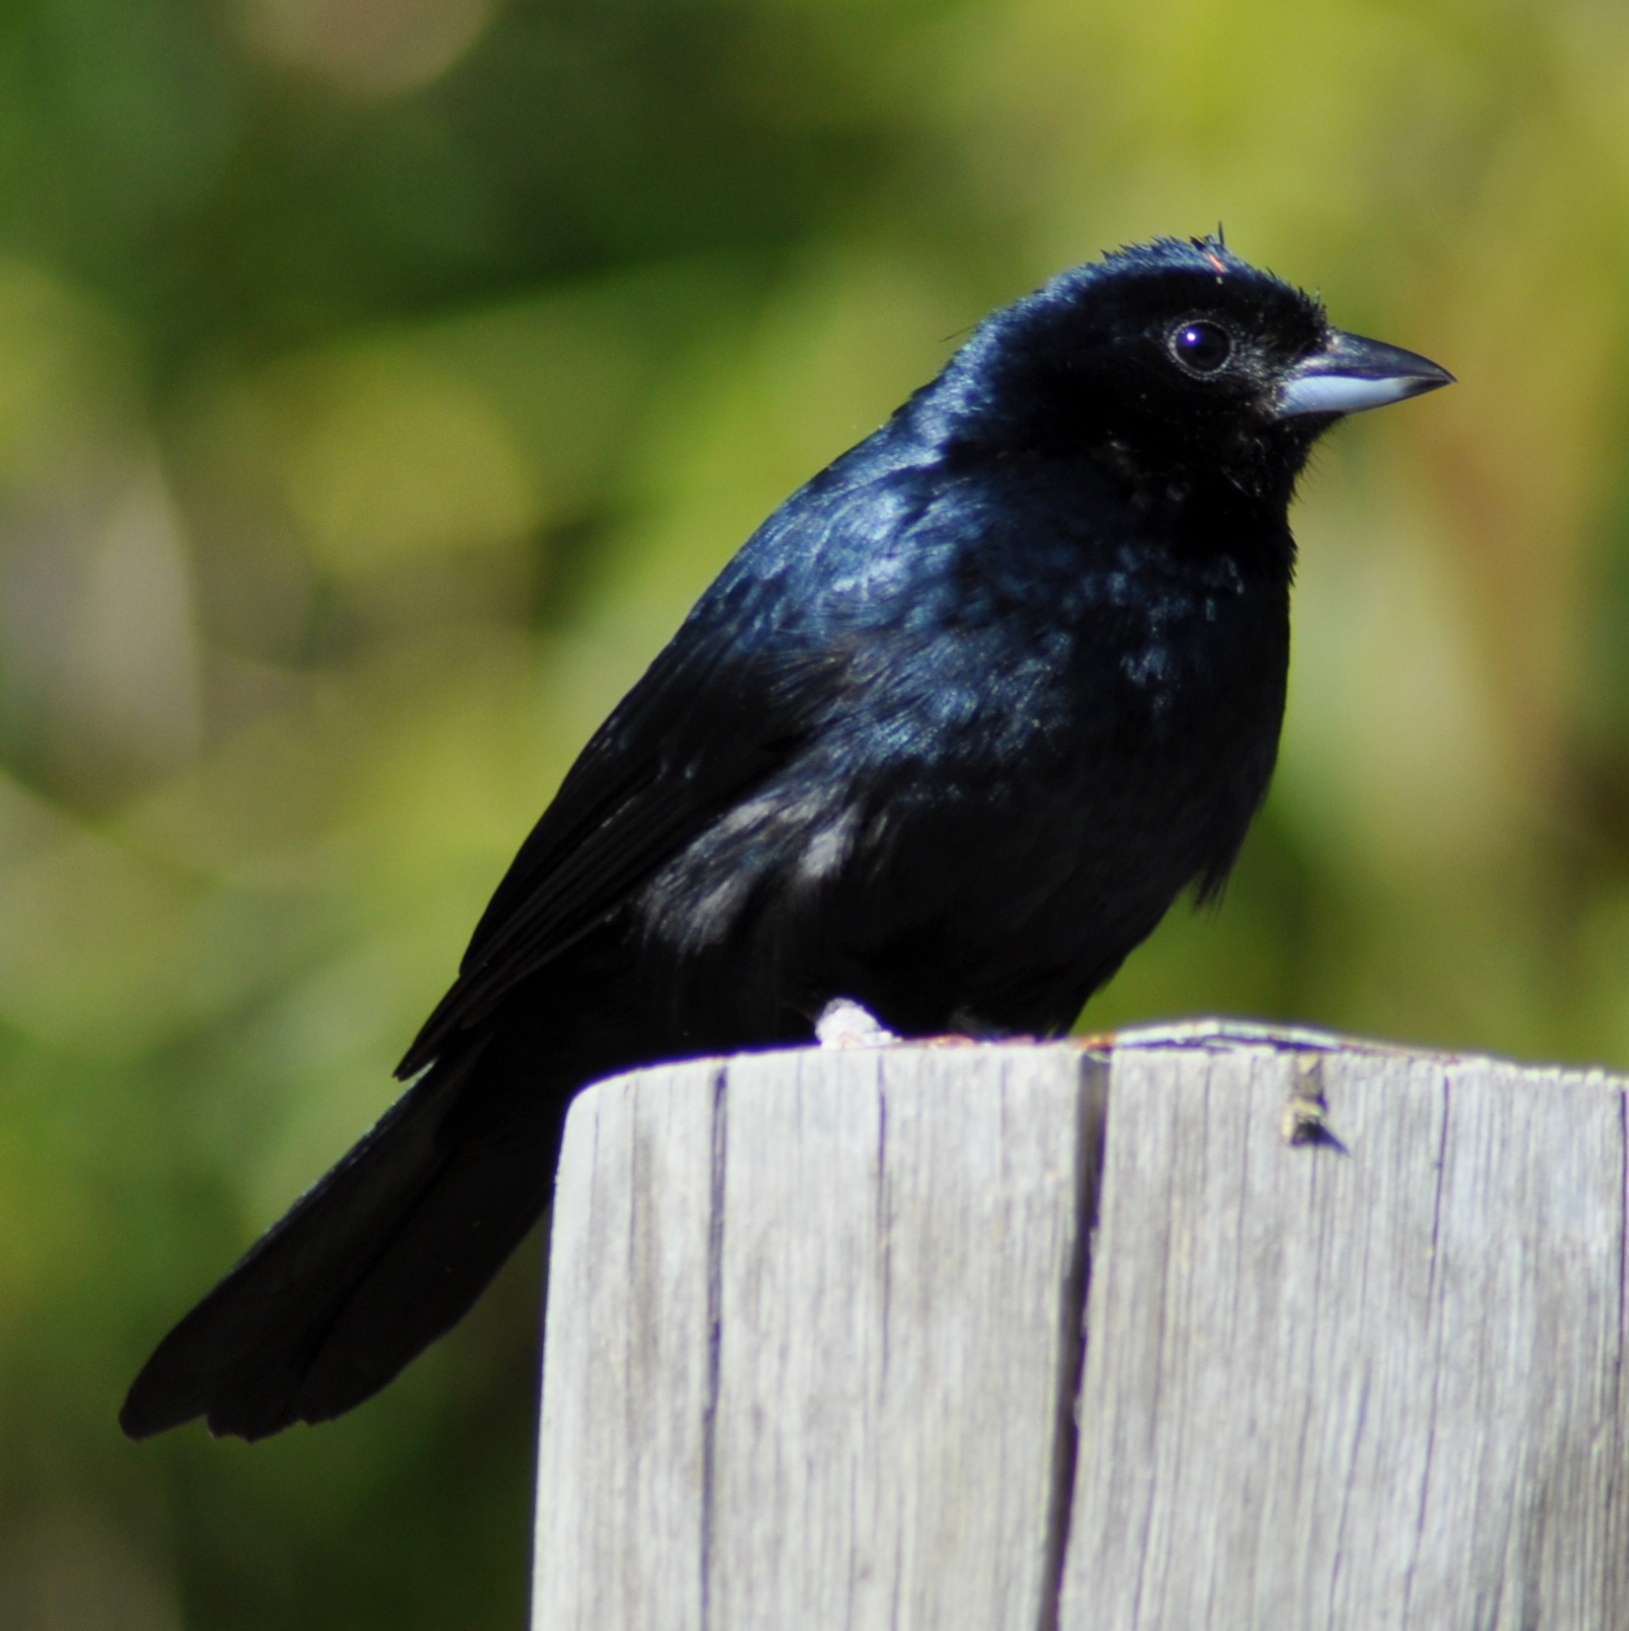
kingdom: Animalia
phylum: Chordata
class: Aves
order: Passeriformes
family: Thraupidae
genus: Tachyphonus
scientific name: Tachyphonus coronatus
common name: Ruby-crowned tanager
